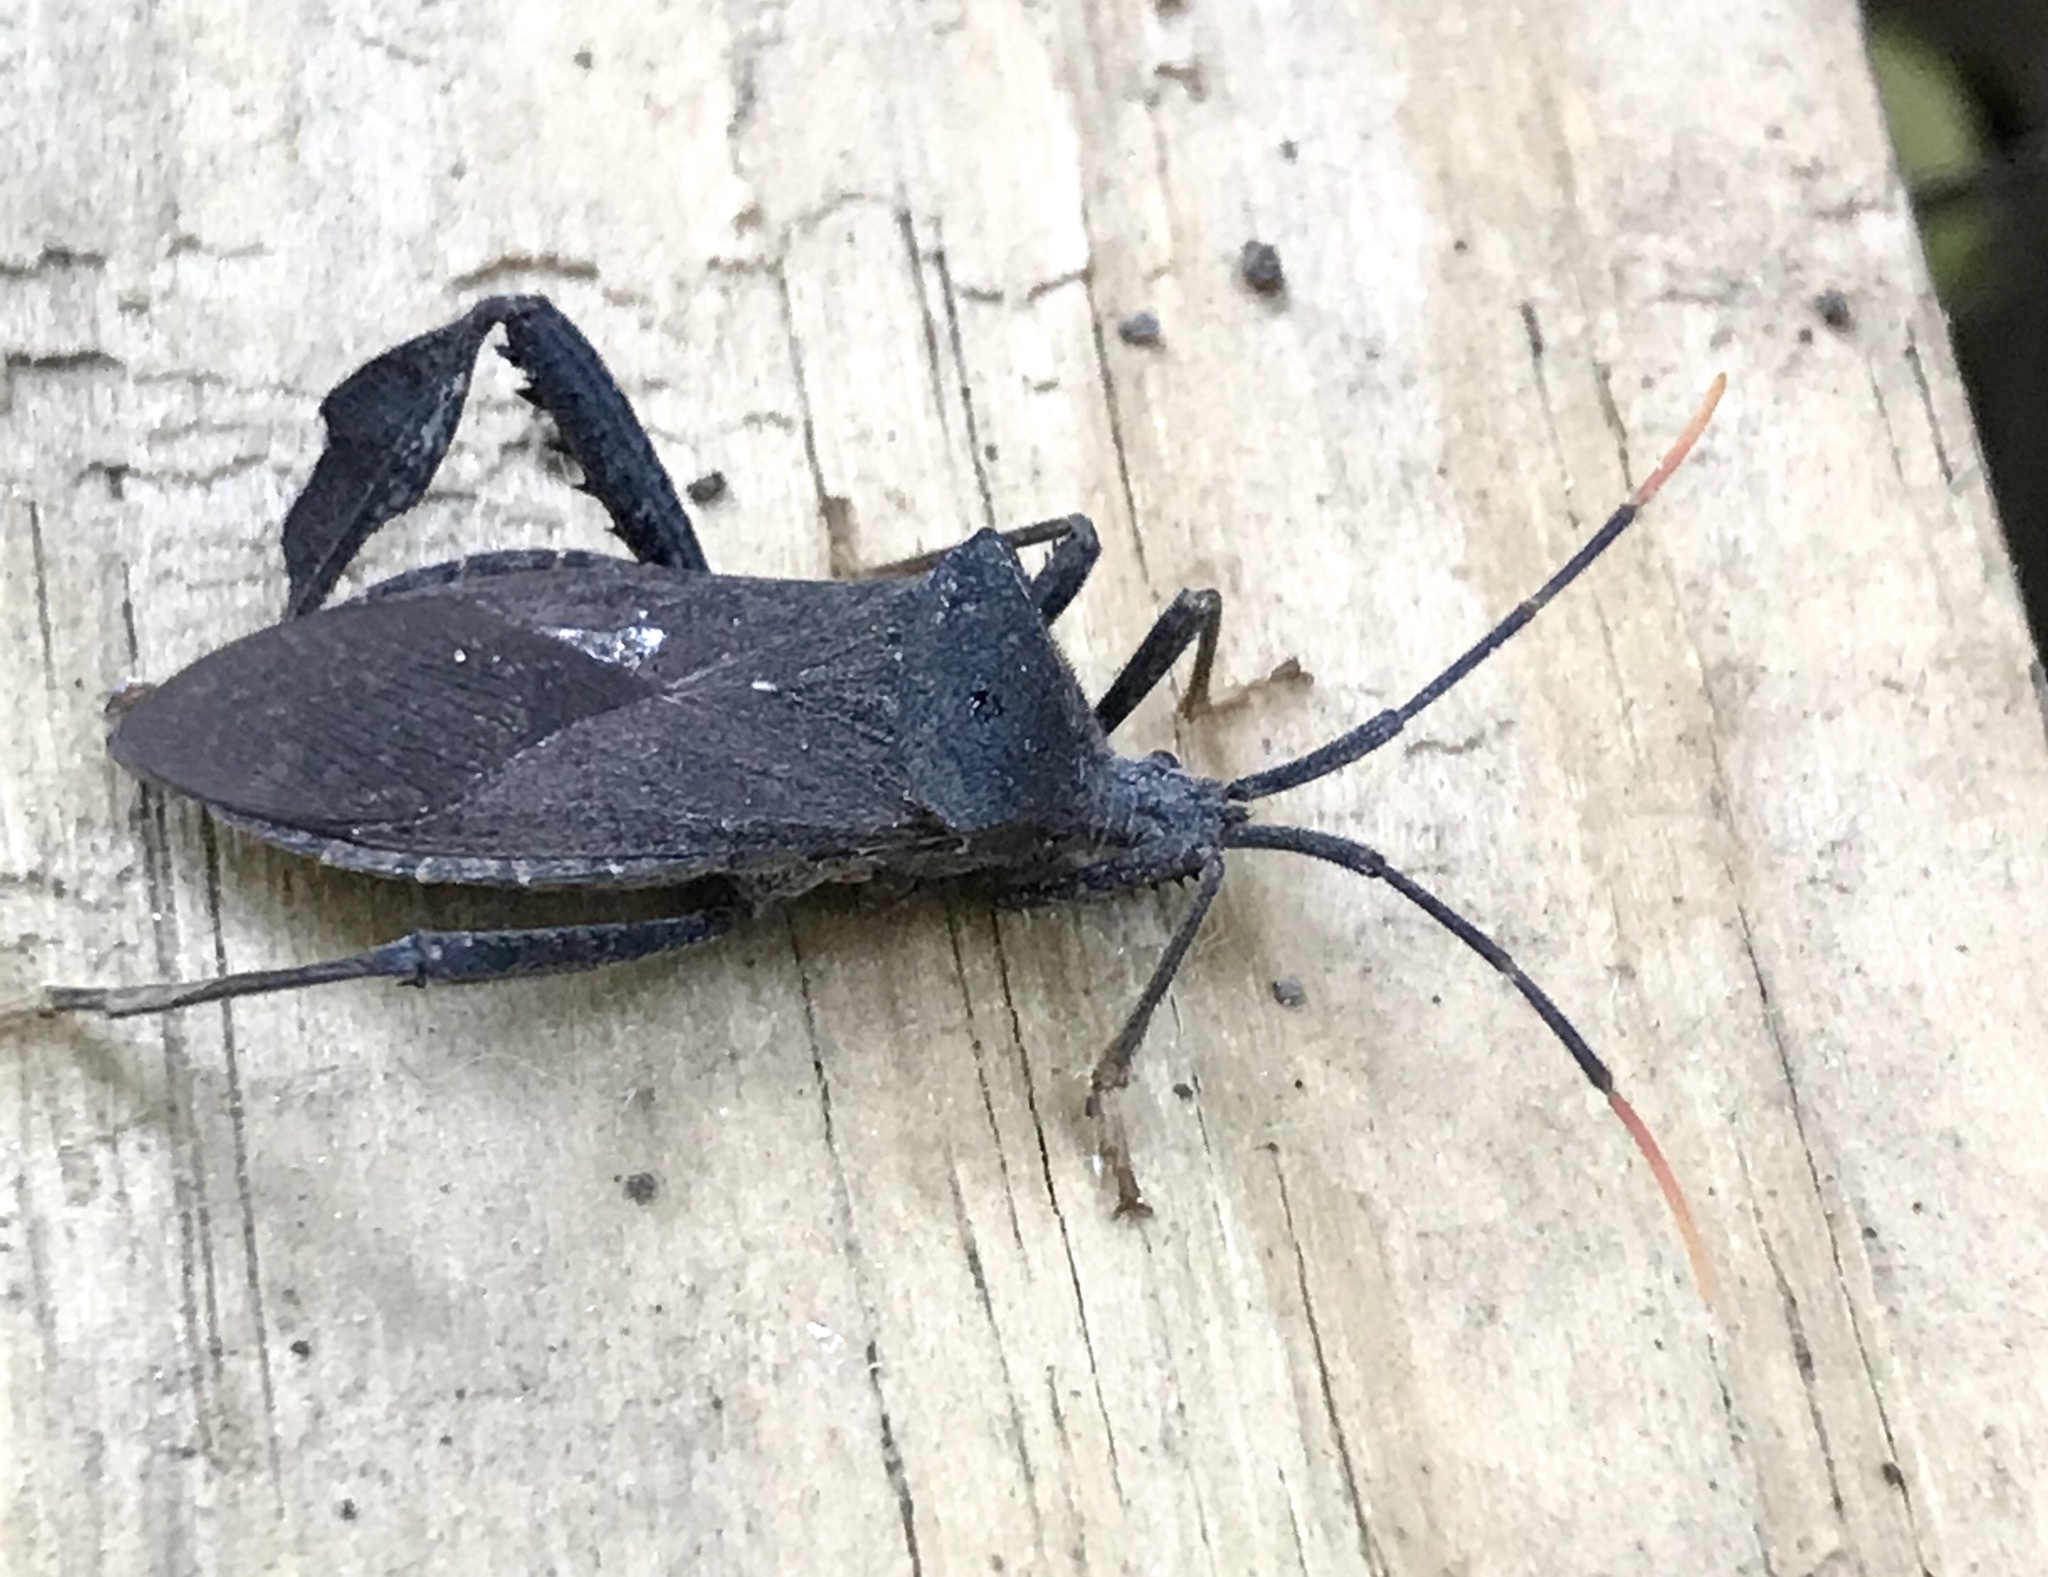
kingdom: Animalia
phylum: Arthropoda
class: Insecta
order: Hemiptera
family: Coreidae
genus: Acanthocephala
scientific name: Acanthocephala terminalis
